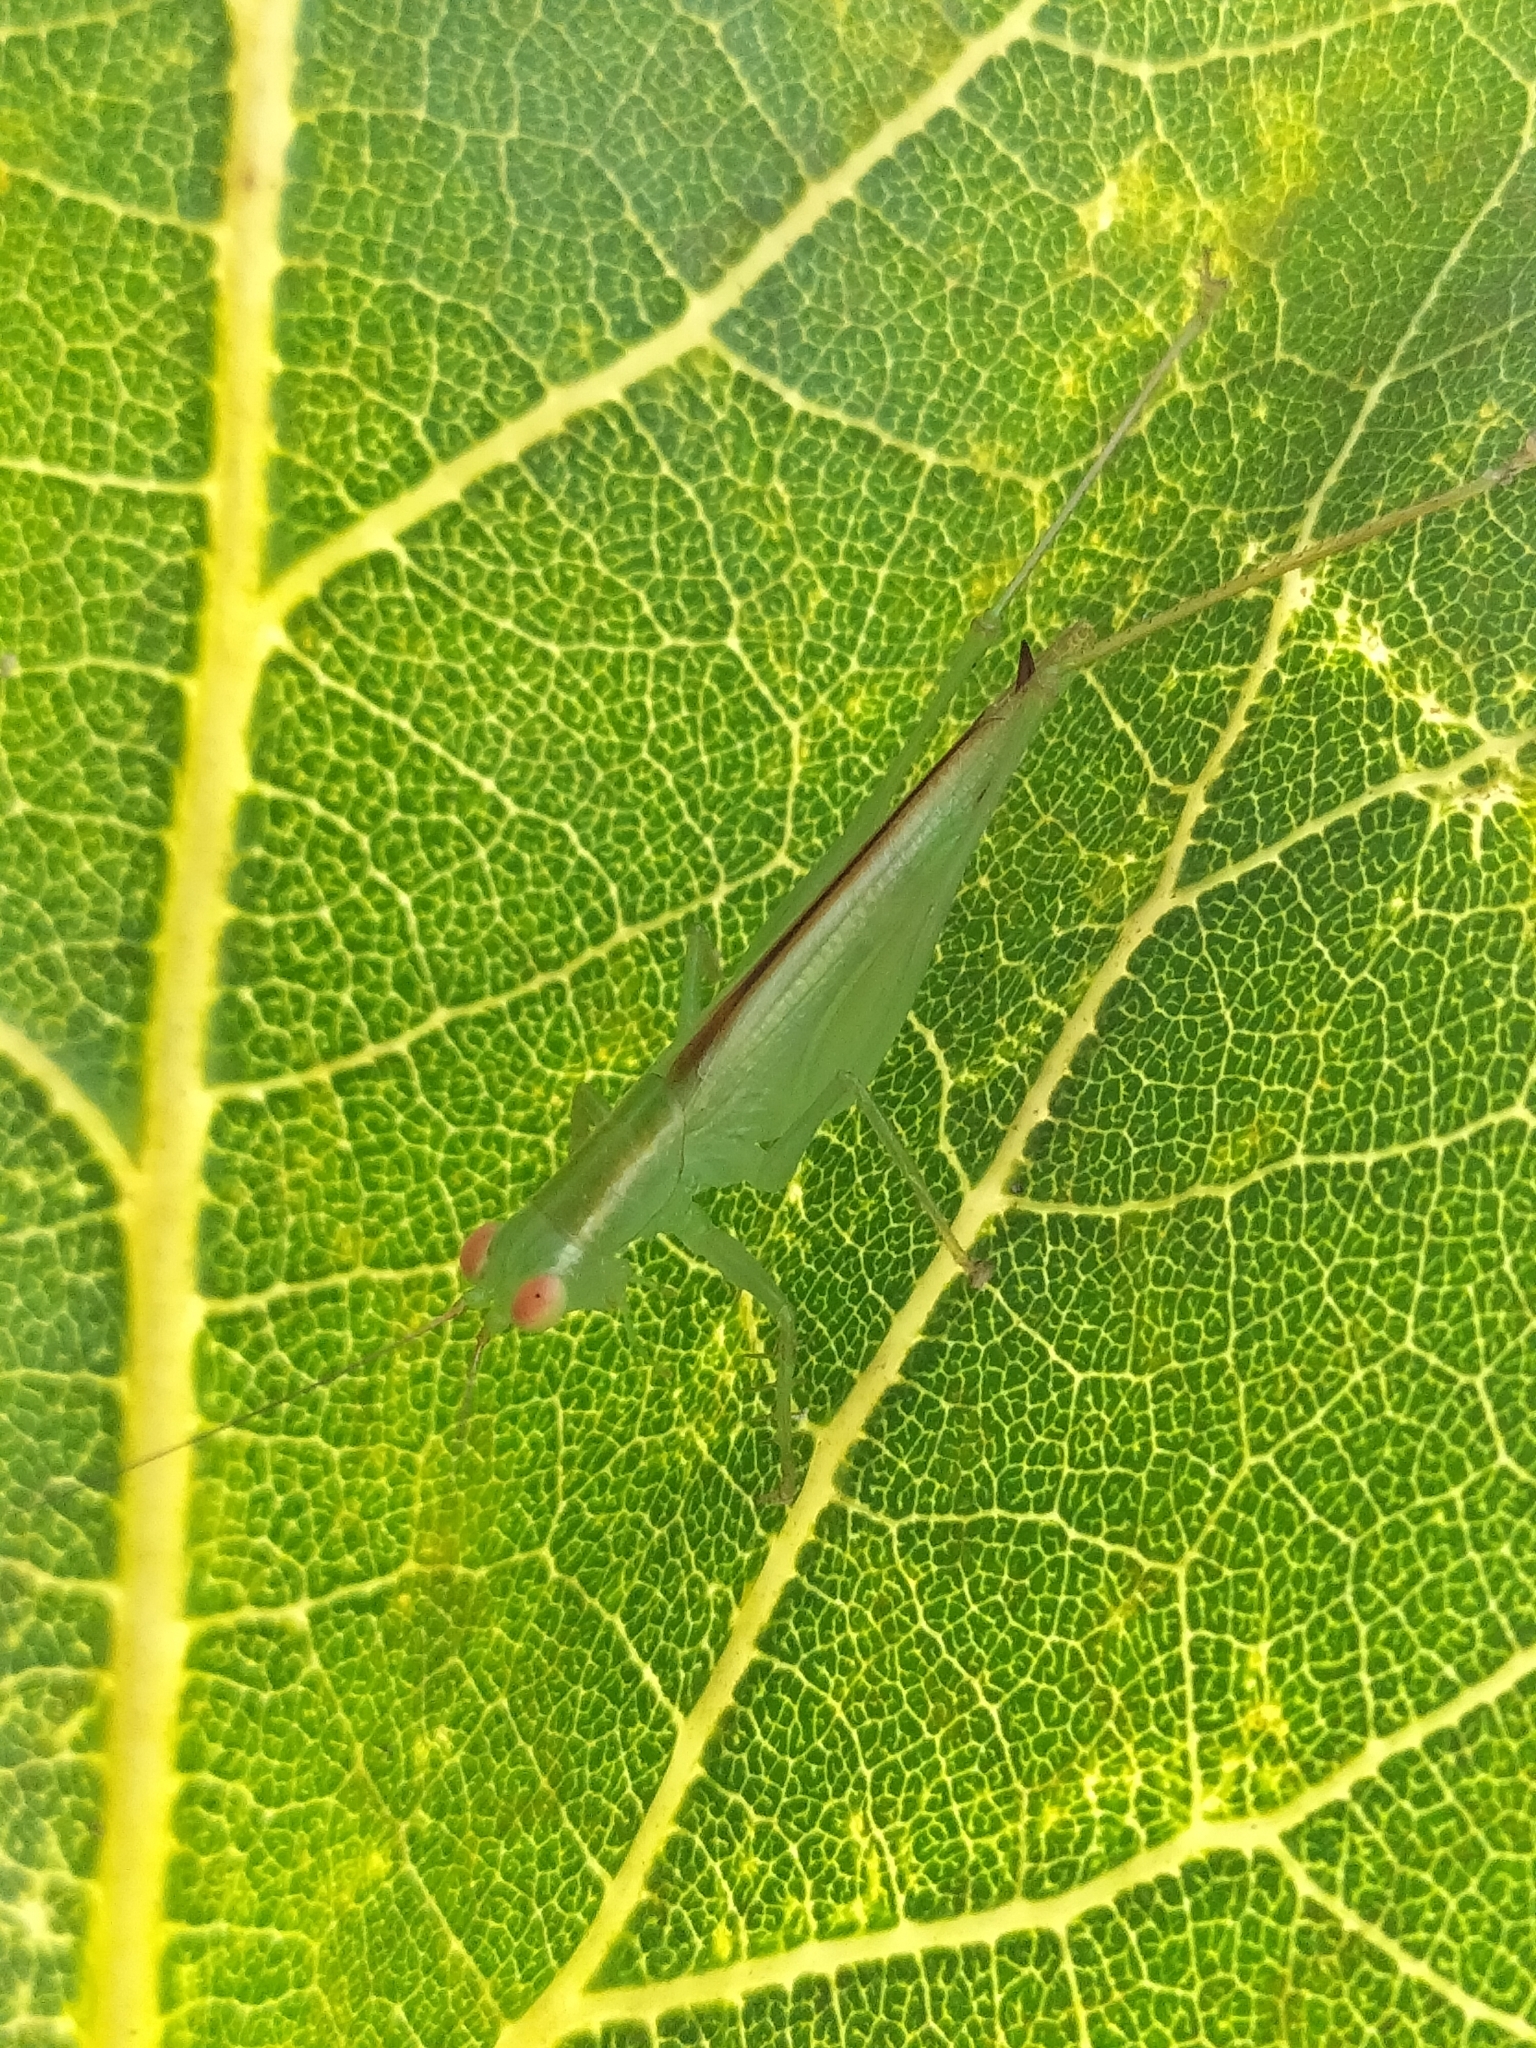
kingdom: Animalia
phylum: Arthropoda
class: Insecta
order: Orthoptera
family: Tettigoniidae
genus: Austrophlugis
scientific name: Austrophlugis malidupa
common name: Malidupa swayer
